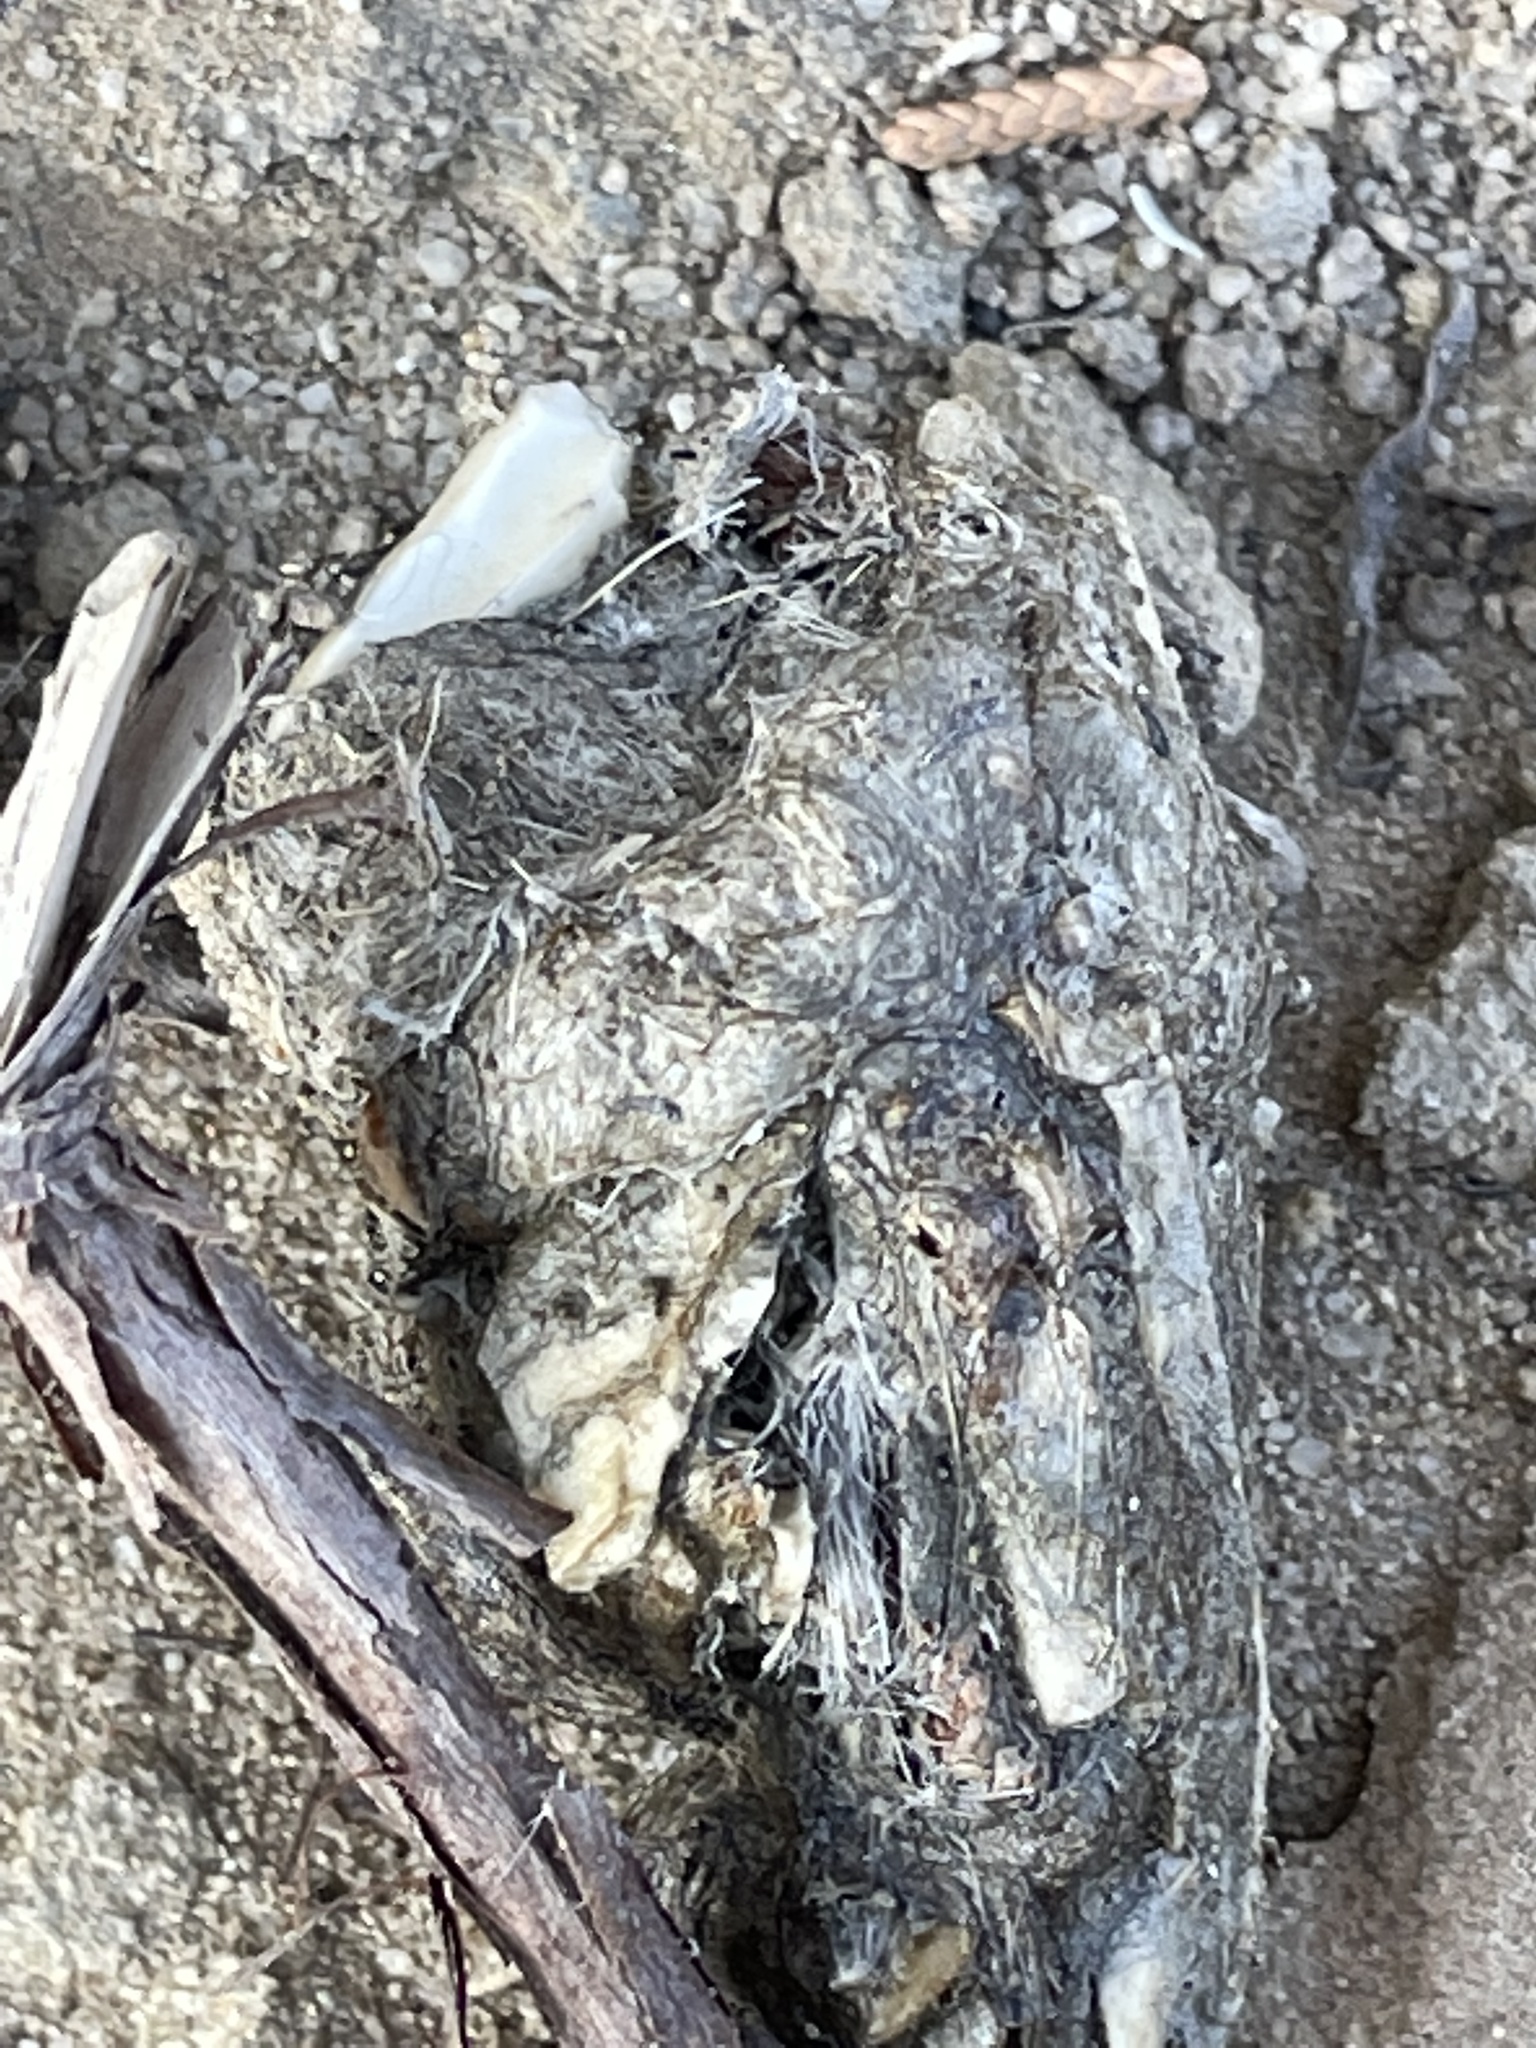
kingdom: Animalia
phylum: Chordata
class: Mammalia
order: Carnivora
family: Canidae
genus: Canis
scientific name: Canis latrans
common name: Coyote
